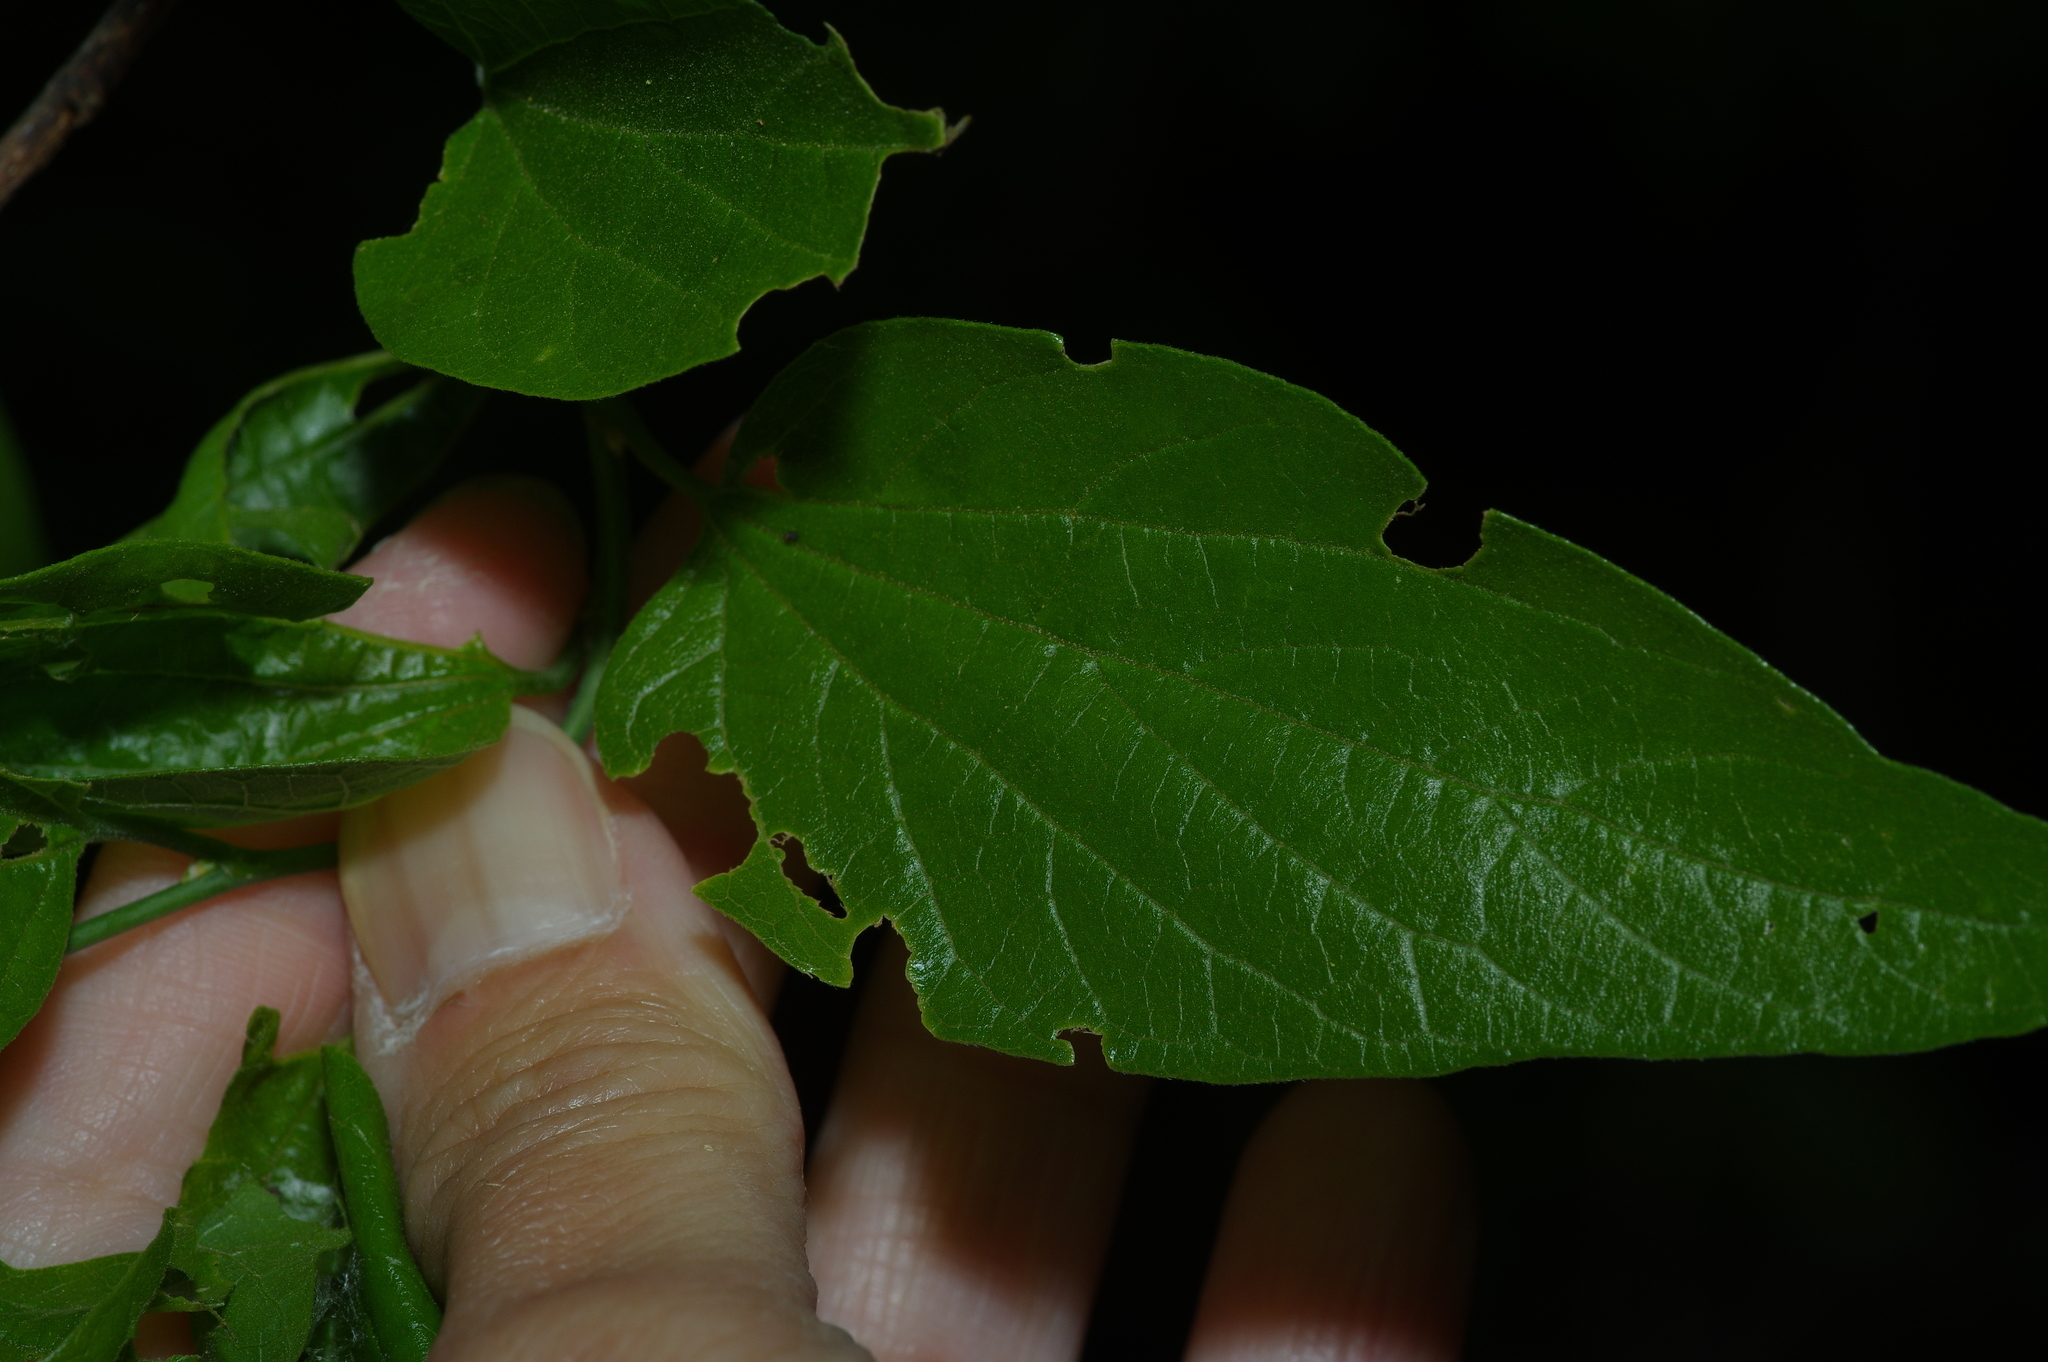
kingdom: Plantae
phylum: Tracheophyta
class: Magnoliopsida
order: Rosales
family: Cannabaceae
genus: Celtis
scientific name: Celtis laevigata
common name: Sugarberry
